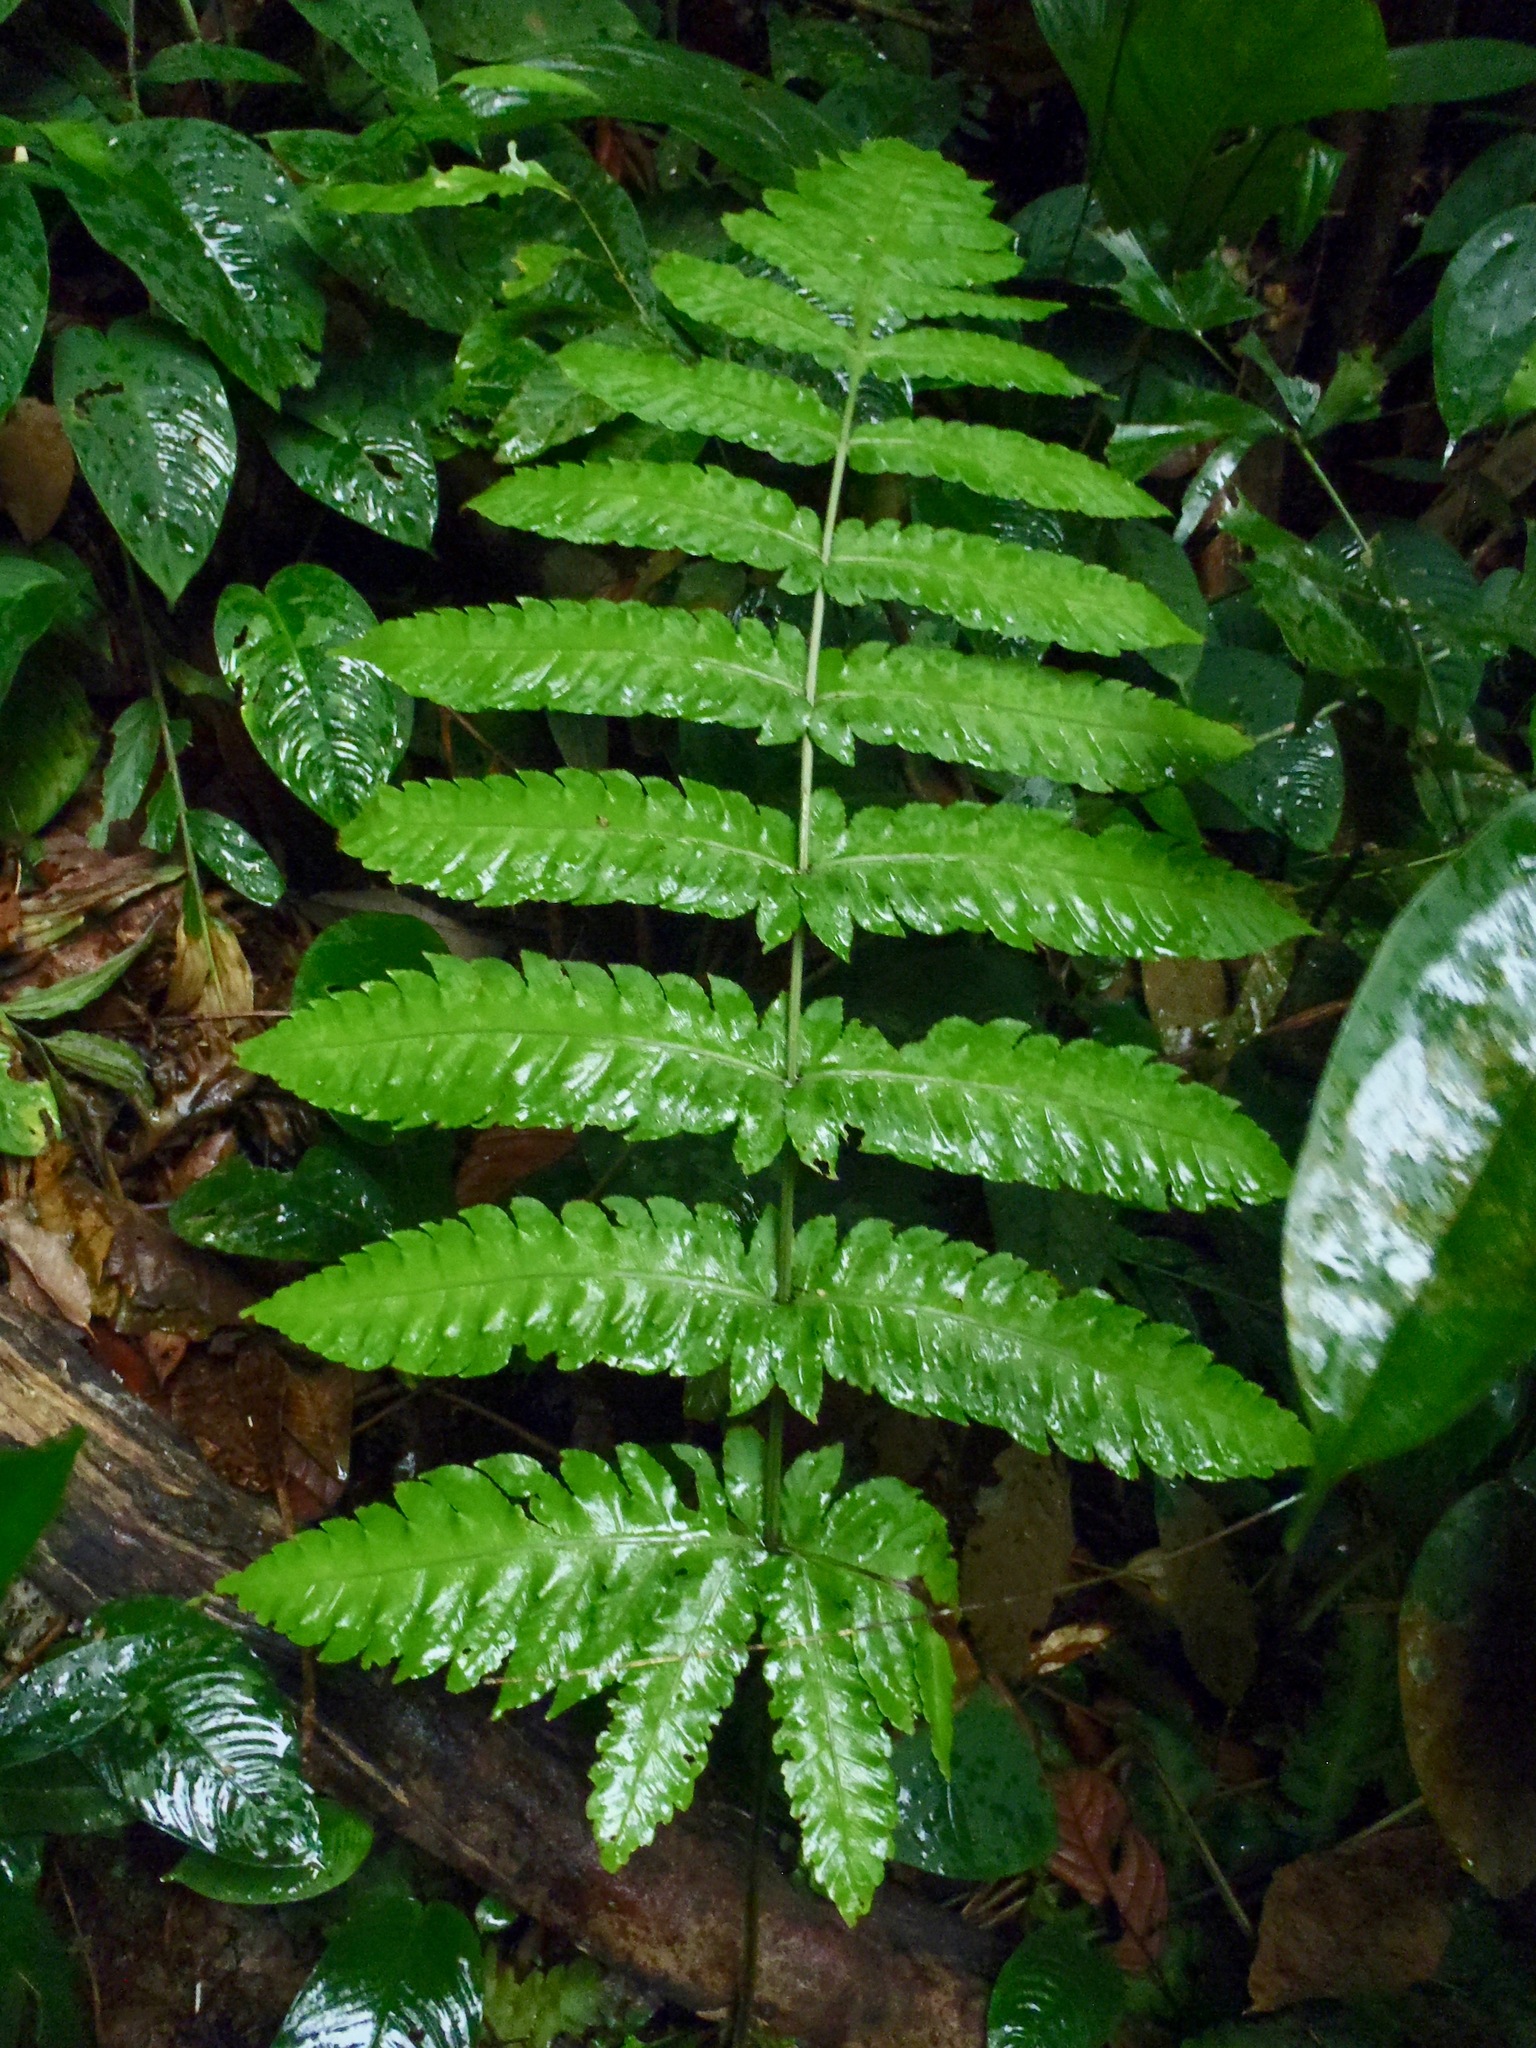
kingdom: Plantae
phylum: Tracheophyta
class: Polypodiopsida
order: Polypodiales
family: Dryopteridaceae
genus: Pleocnemia
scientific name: Pleocnemia irregularis
